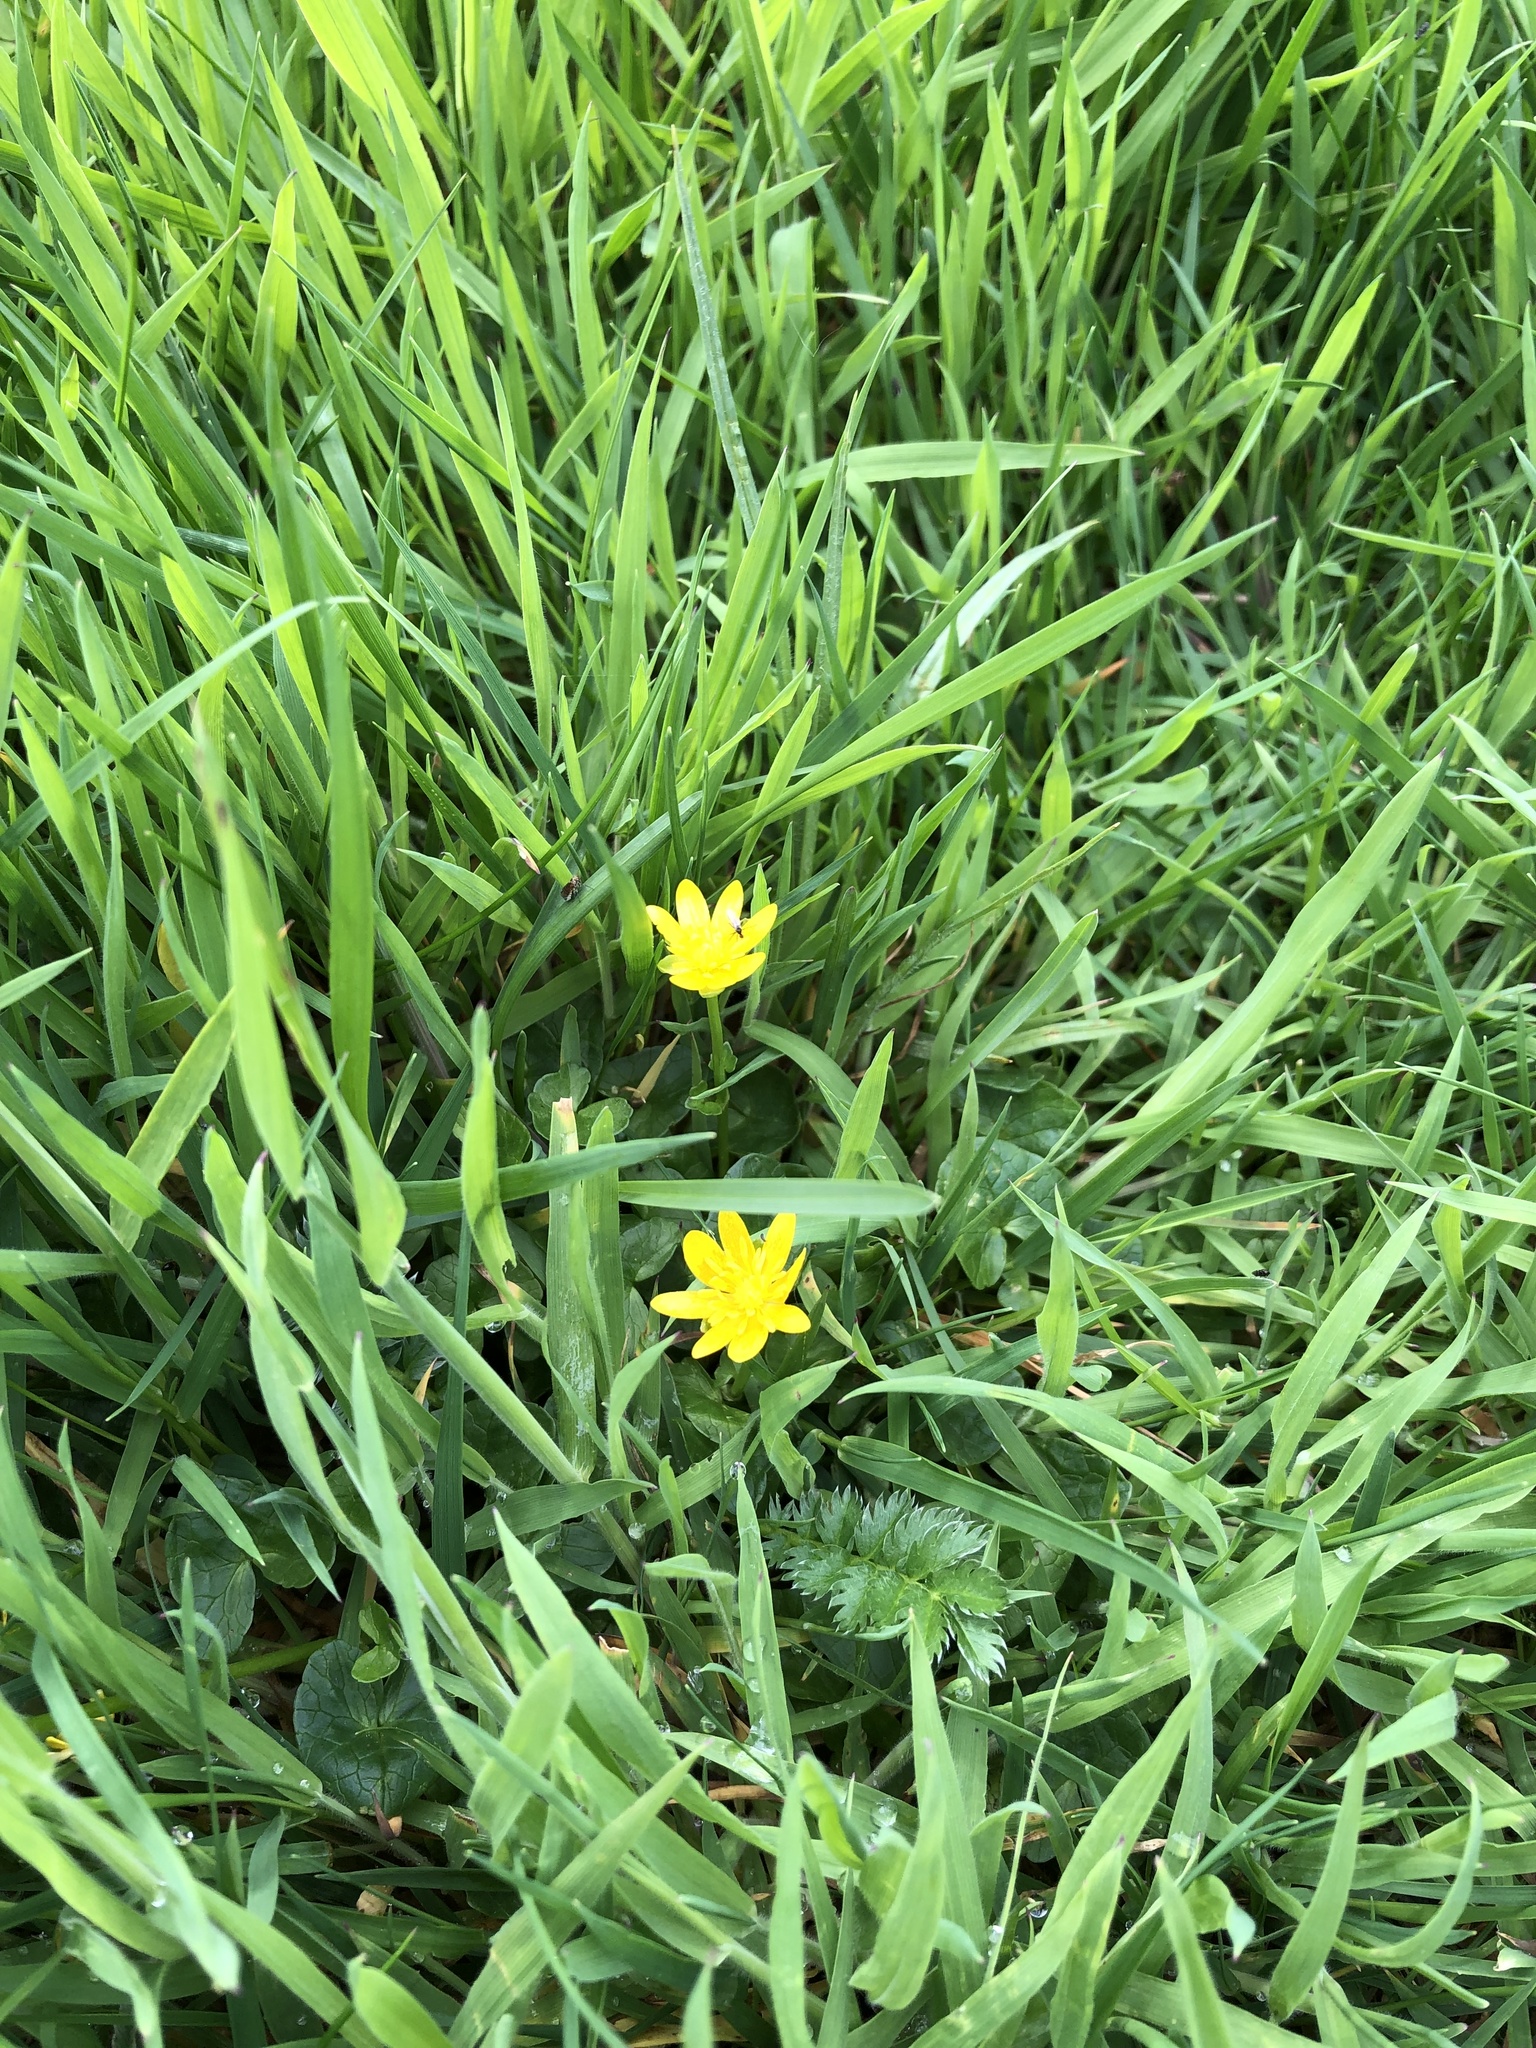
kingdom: Plantae
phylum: Tracheophyta
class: Magnoliopsida
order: Ranunculales
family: Ranunculaceae
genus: Ficaria
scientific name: Ficaria verna
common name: Lesser celandine
